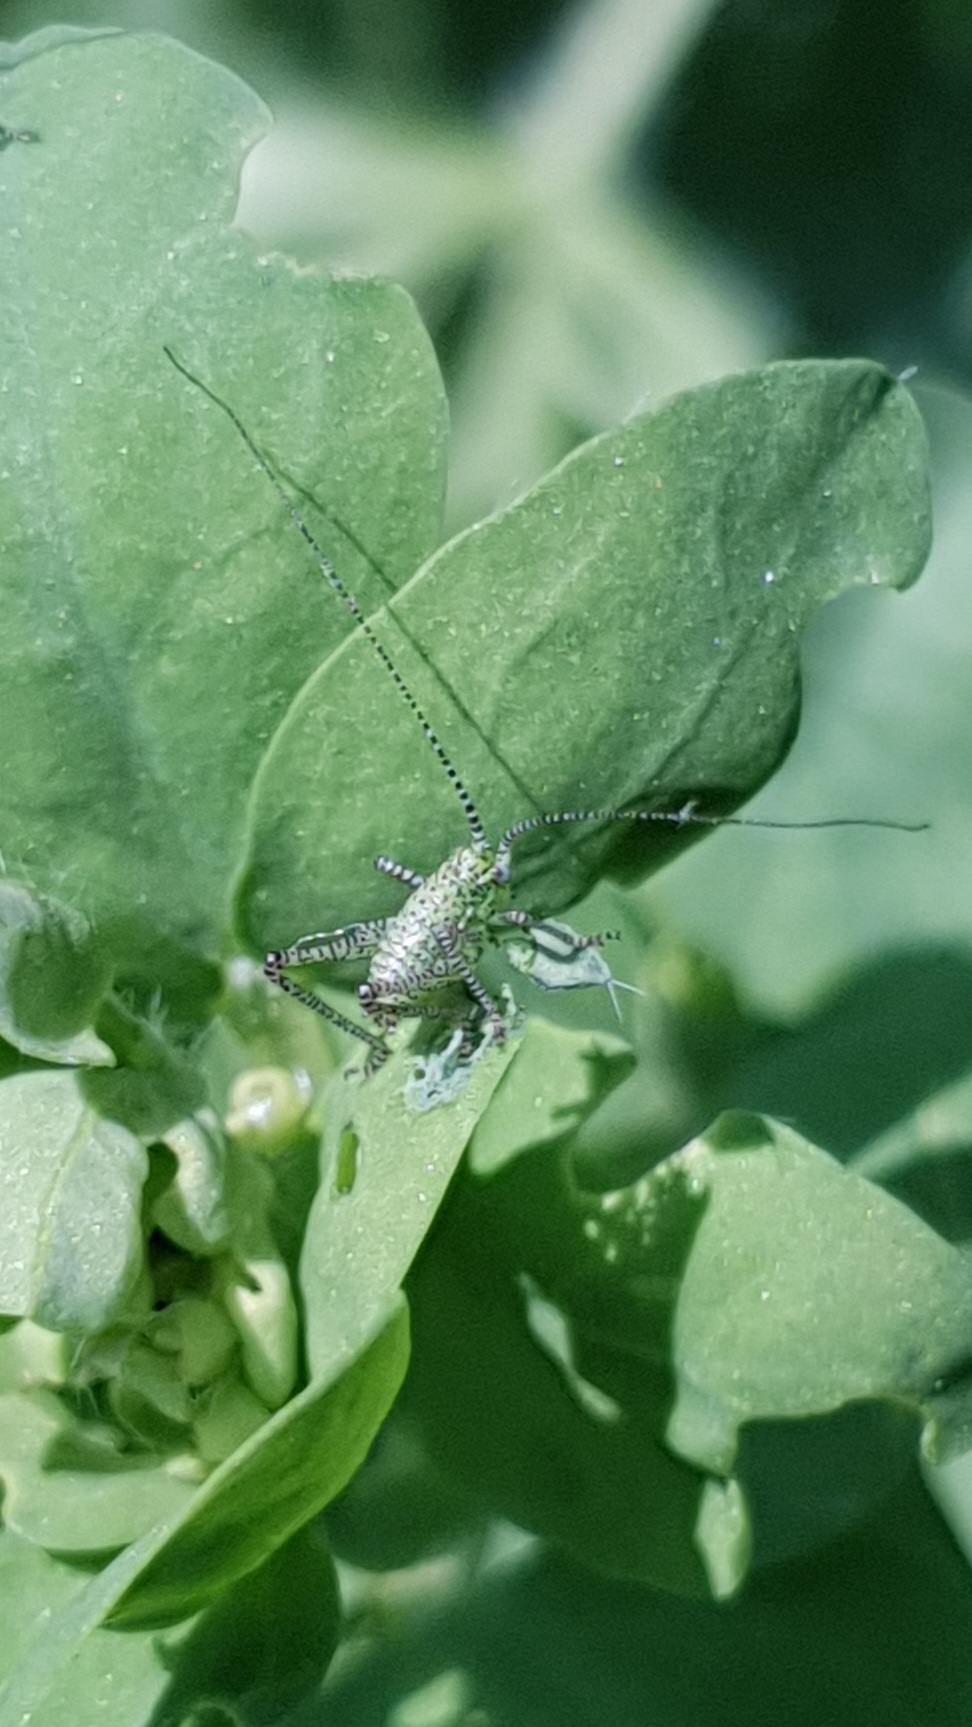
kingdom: Animalia
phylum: Arthropoda
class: Insecta
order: Orthoptera
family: Tettigoniidae
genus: Leptophyes
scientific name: Leptophyes punctatissima
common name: Speckled bush-cricket
